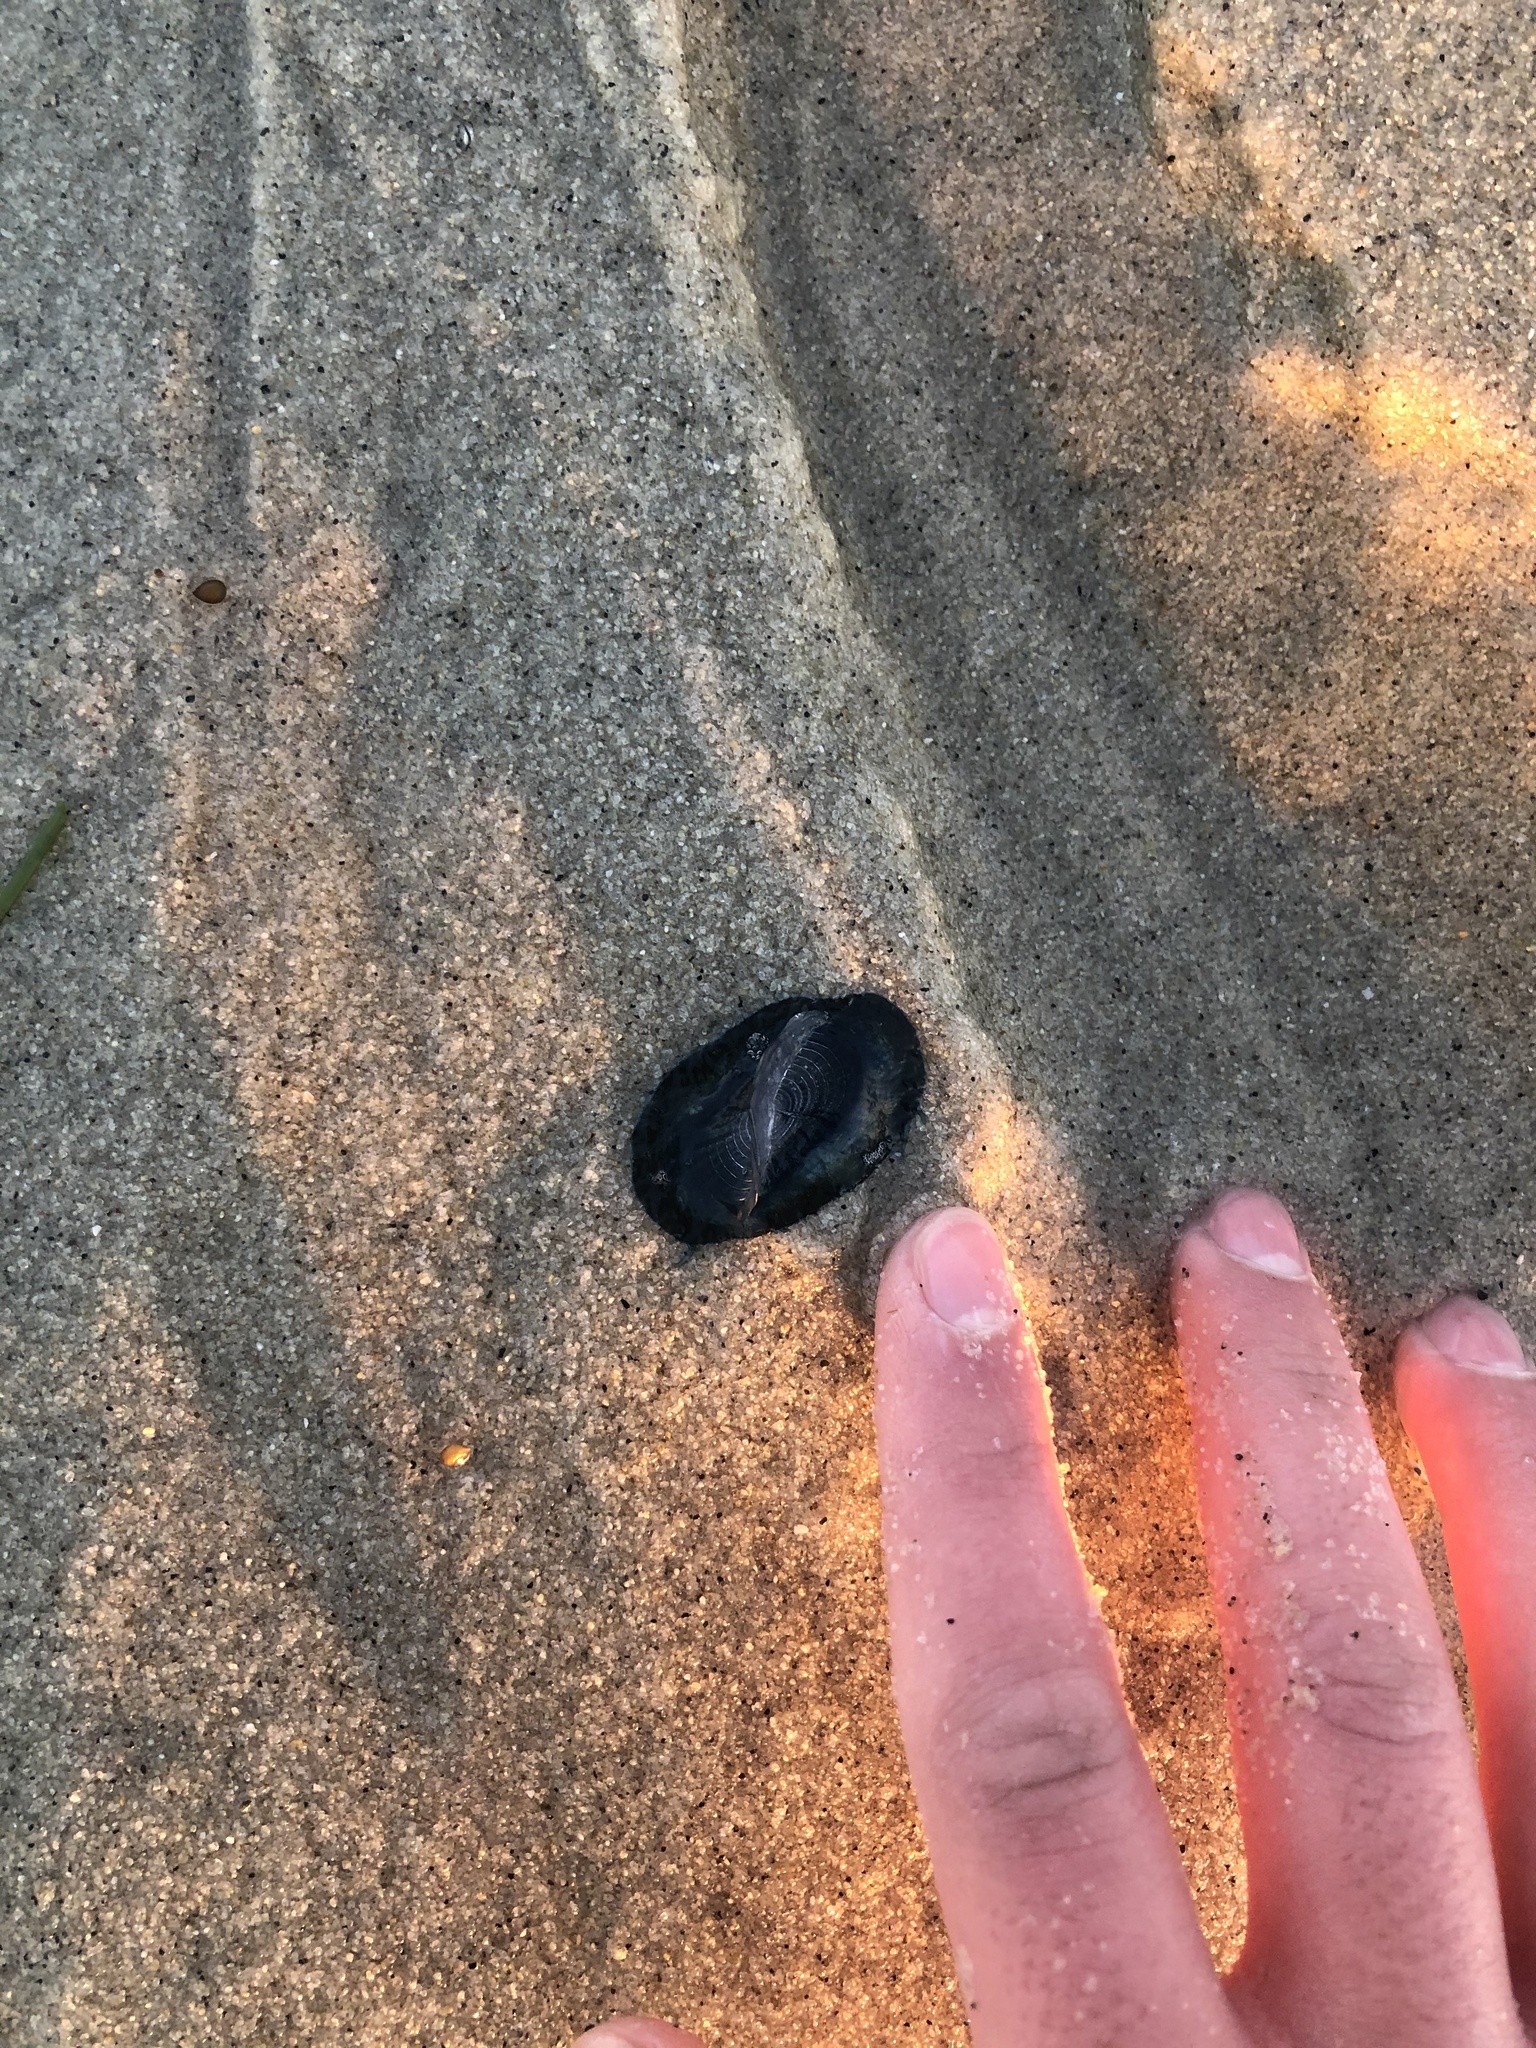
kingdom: Animalia
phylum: Cnidaria
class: Hydrozoa
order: Anthoathecata
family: Porpitidae
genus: Velella
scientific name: Velella velella
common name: By-the-wind-sailor
